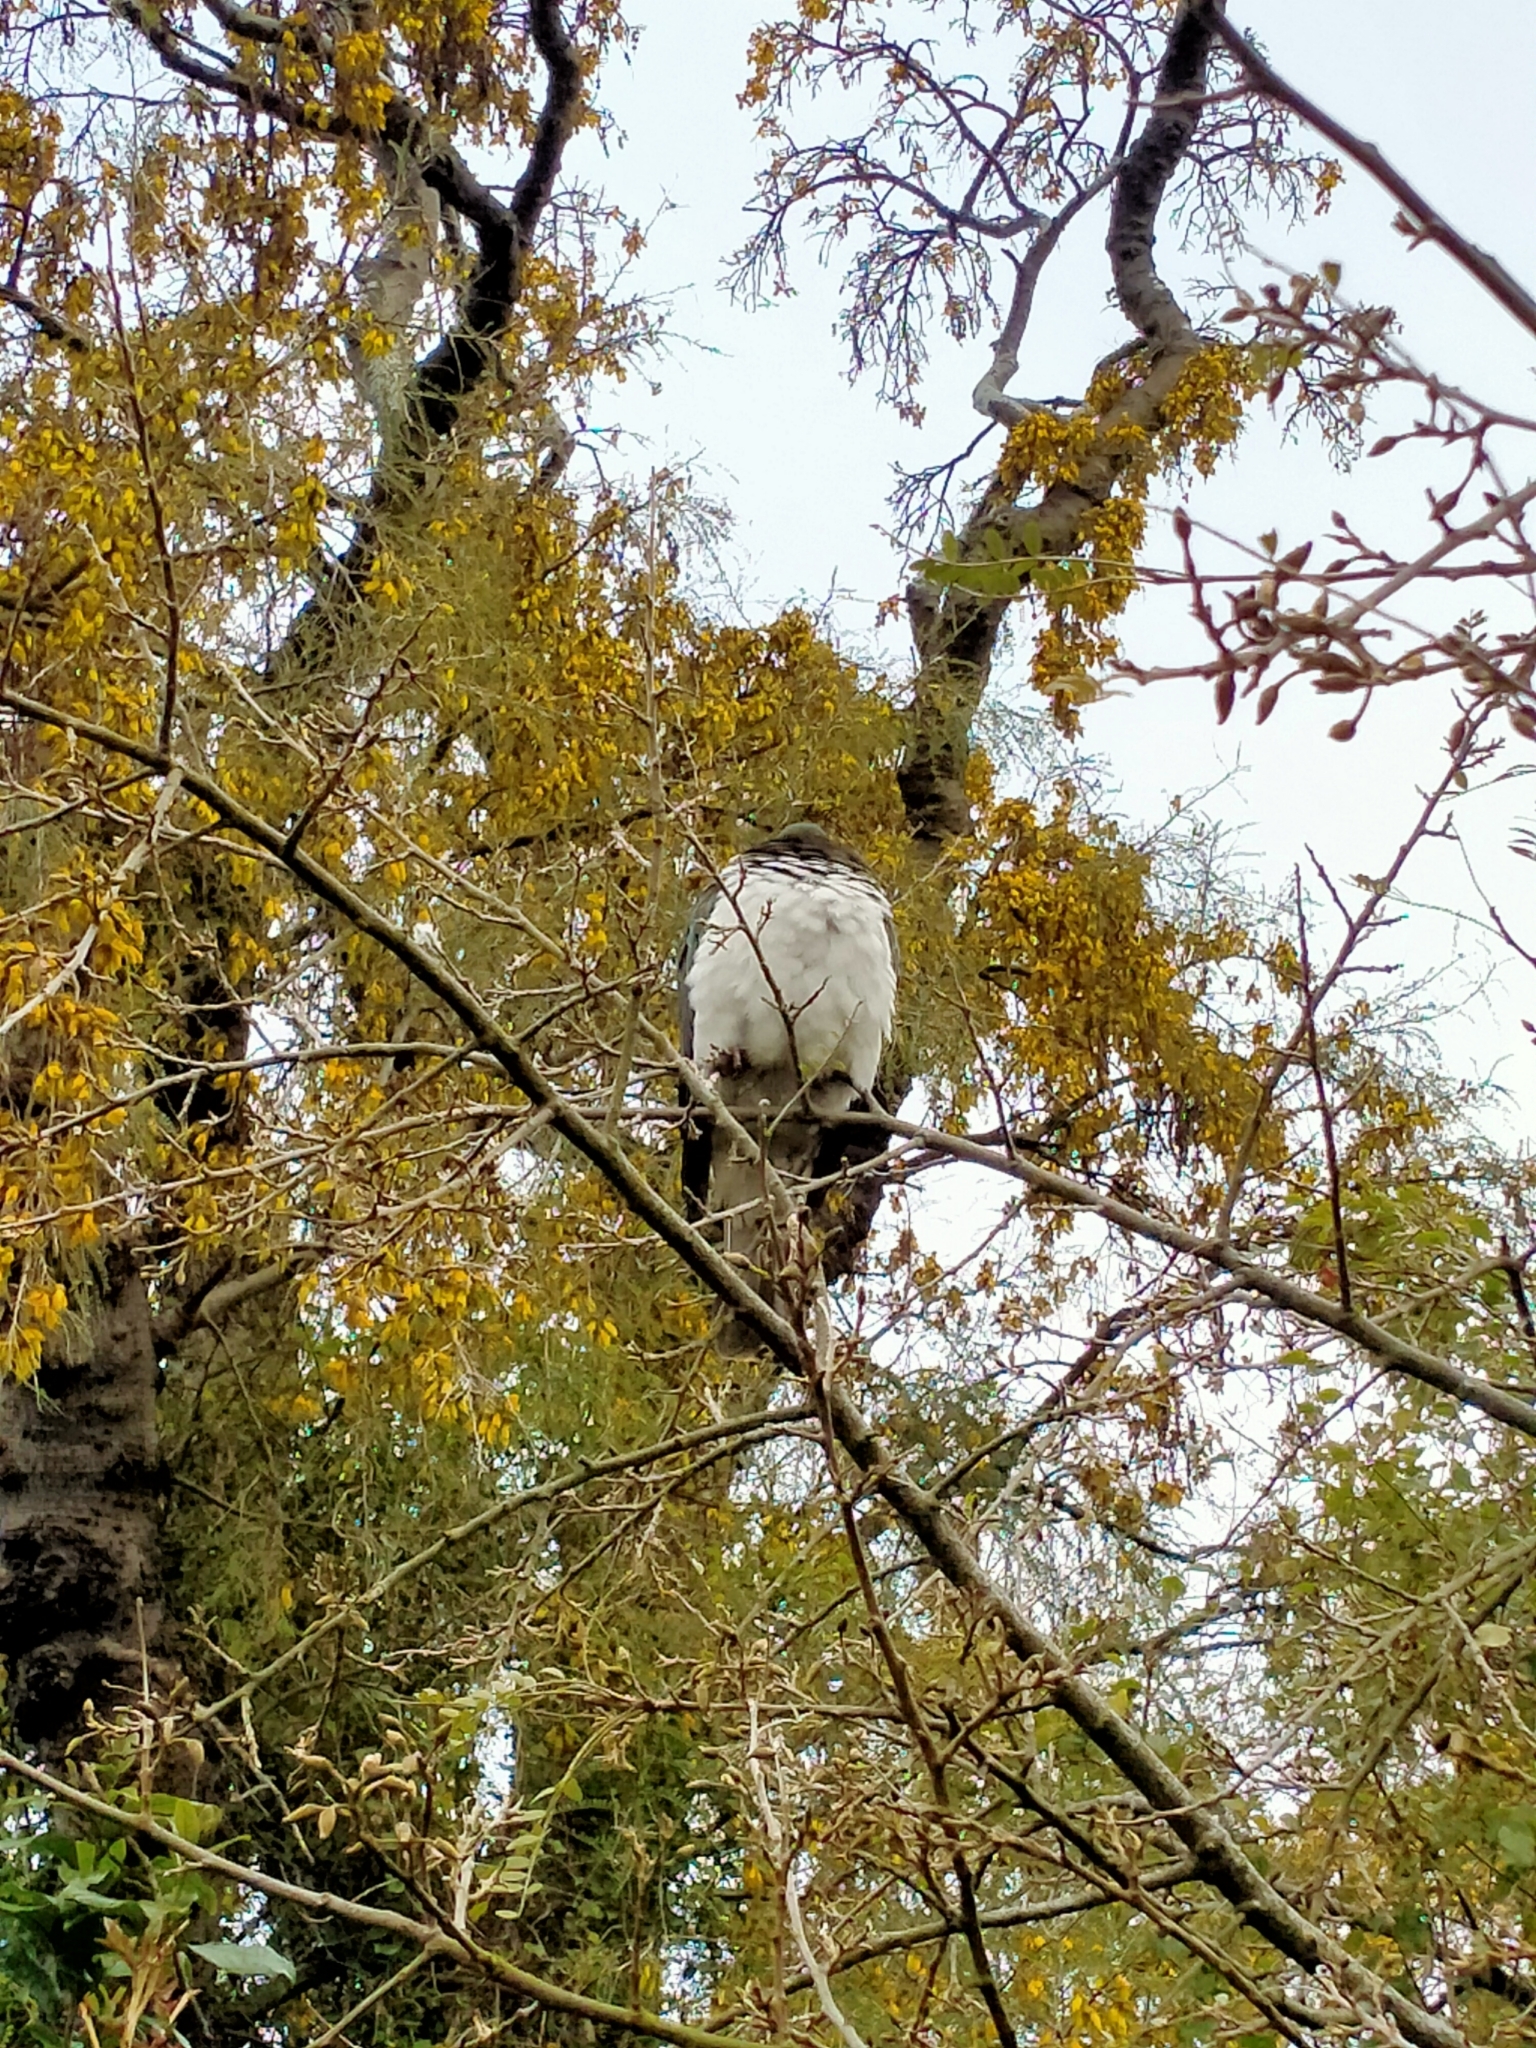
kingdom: Animalia
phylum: Chordata
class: Aves
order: Columbiformes
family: Columbidae
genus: Hemiphaga
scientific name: Hemiphaga novaeseelandiae
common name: New zealand pigeon
